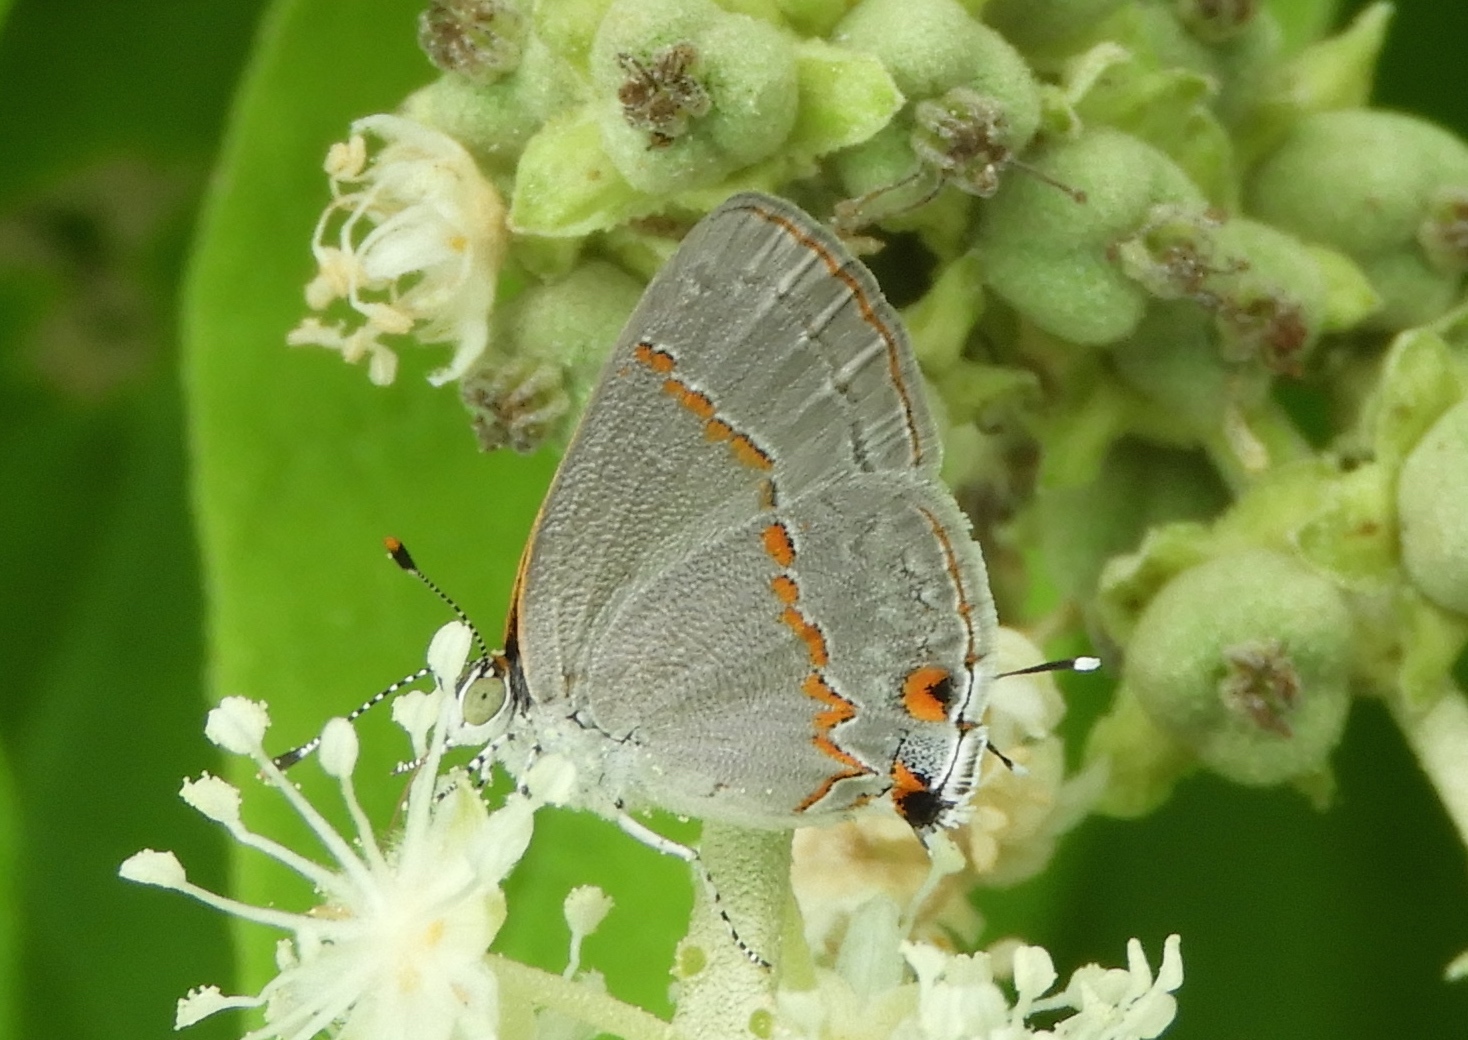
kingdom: Animalia
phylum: Arthropoda
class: Insecta
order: Lepidoptera
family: Lycaenidae
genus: Ministrymon
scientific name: Ministrymon janevicroy
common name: Pebbly ministreak
